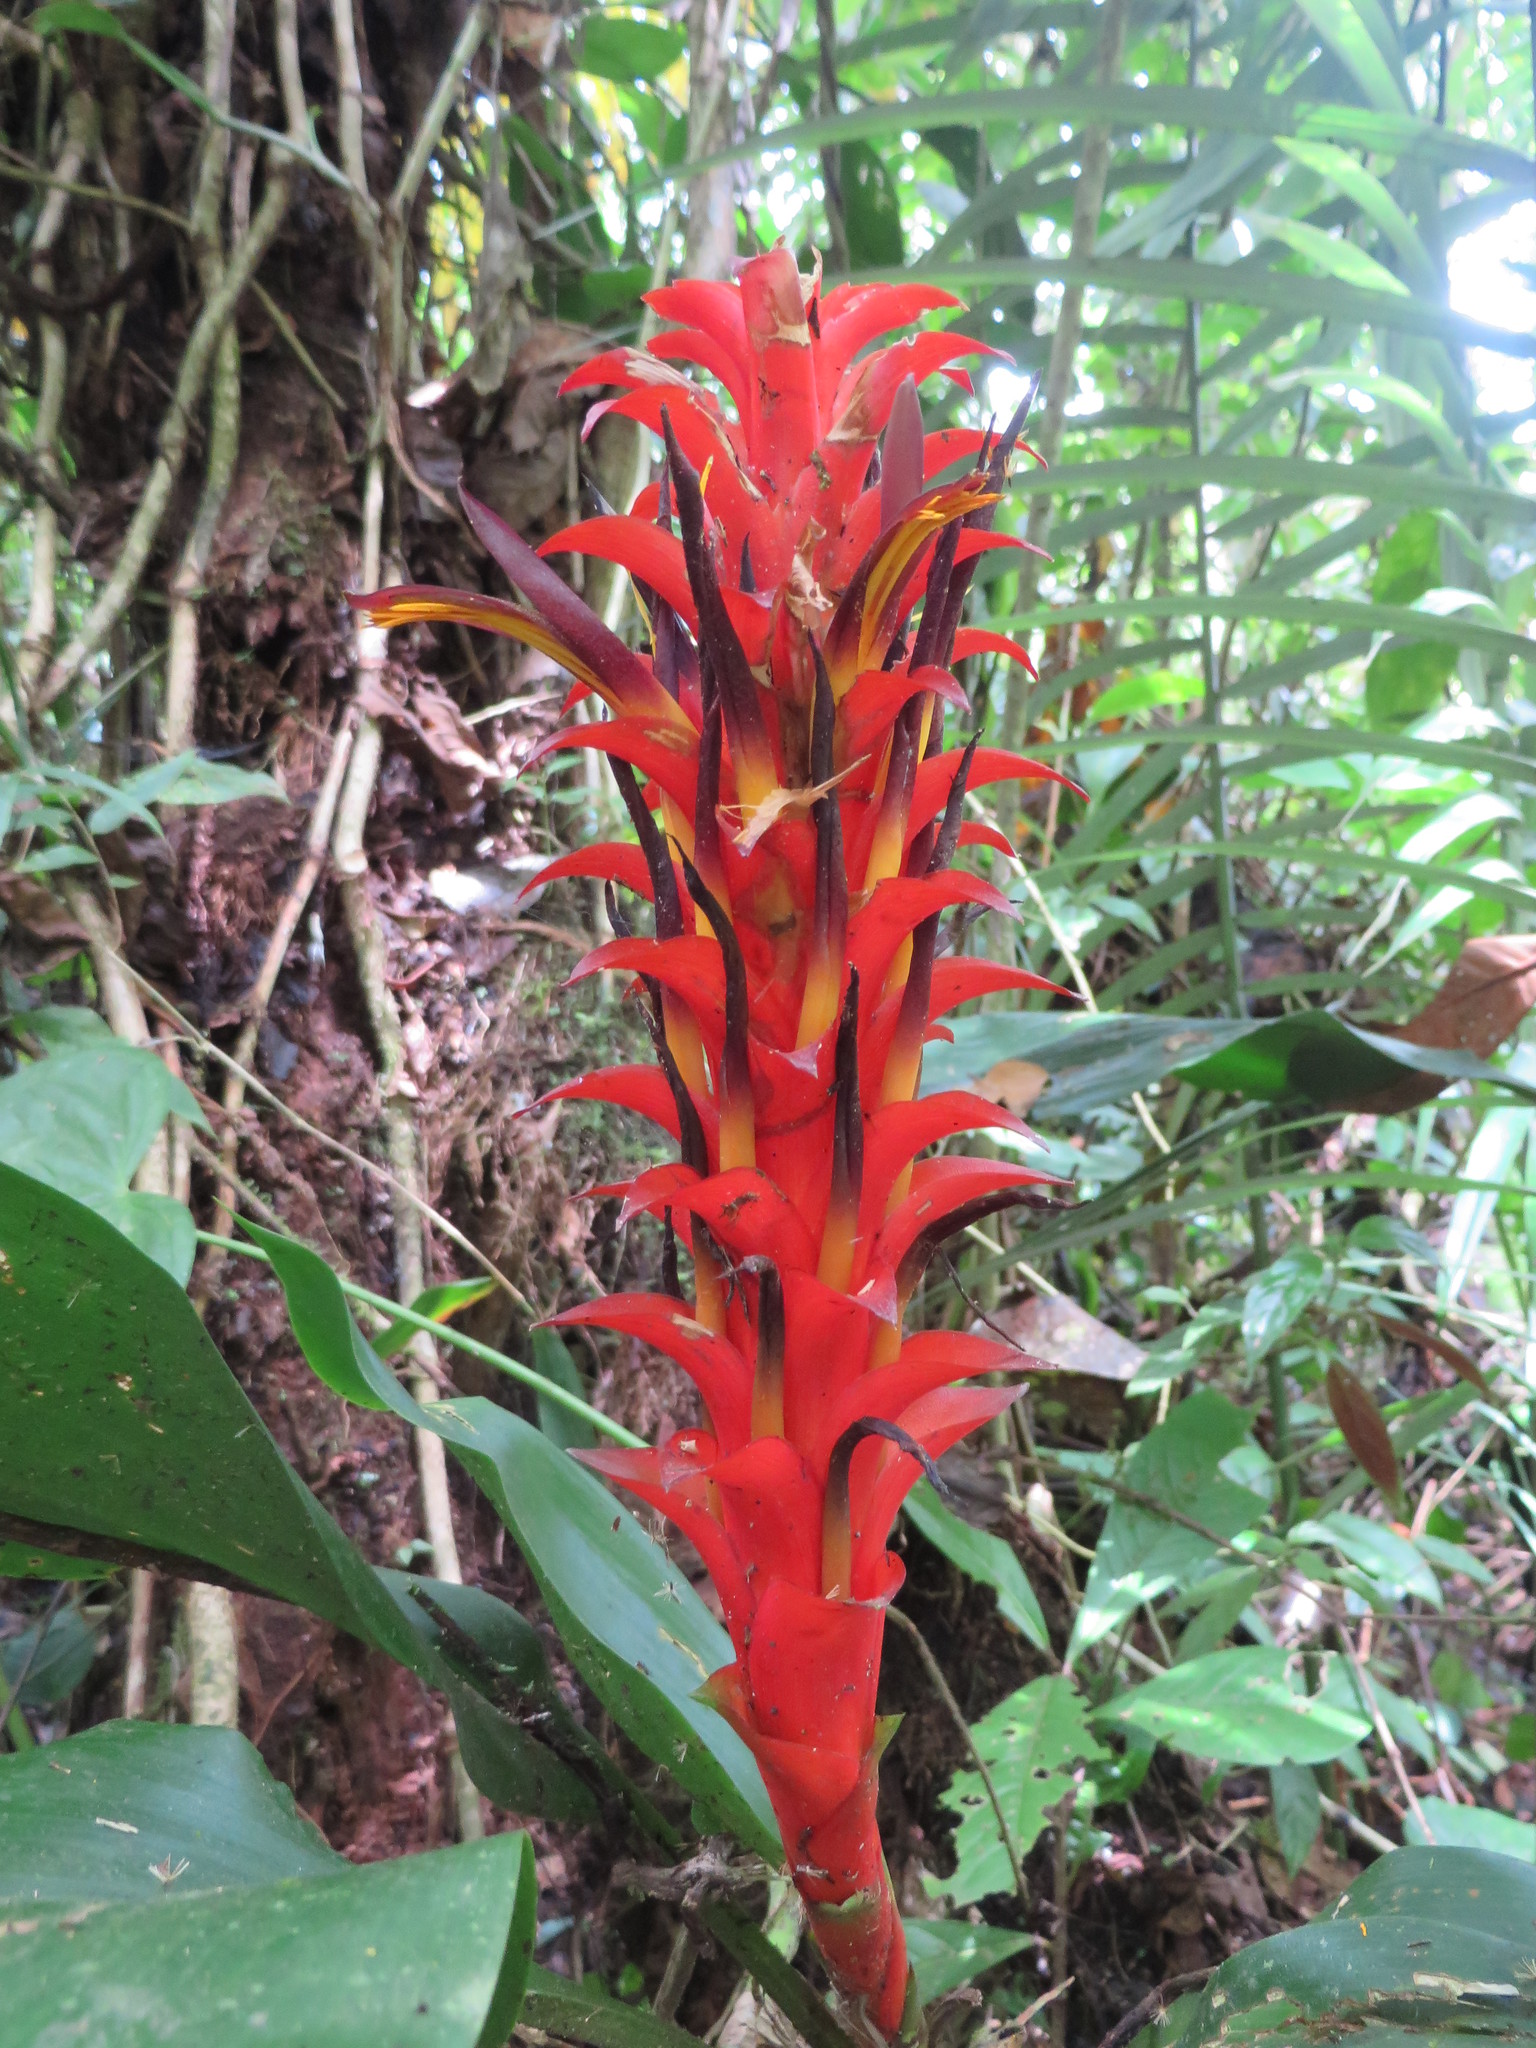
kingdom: Plantae
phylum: Tracheophyta
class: Liliopsida
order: Poales
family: Bromeliaceae
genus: Pitcairnia
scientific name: Pitcairnia nigra
